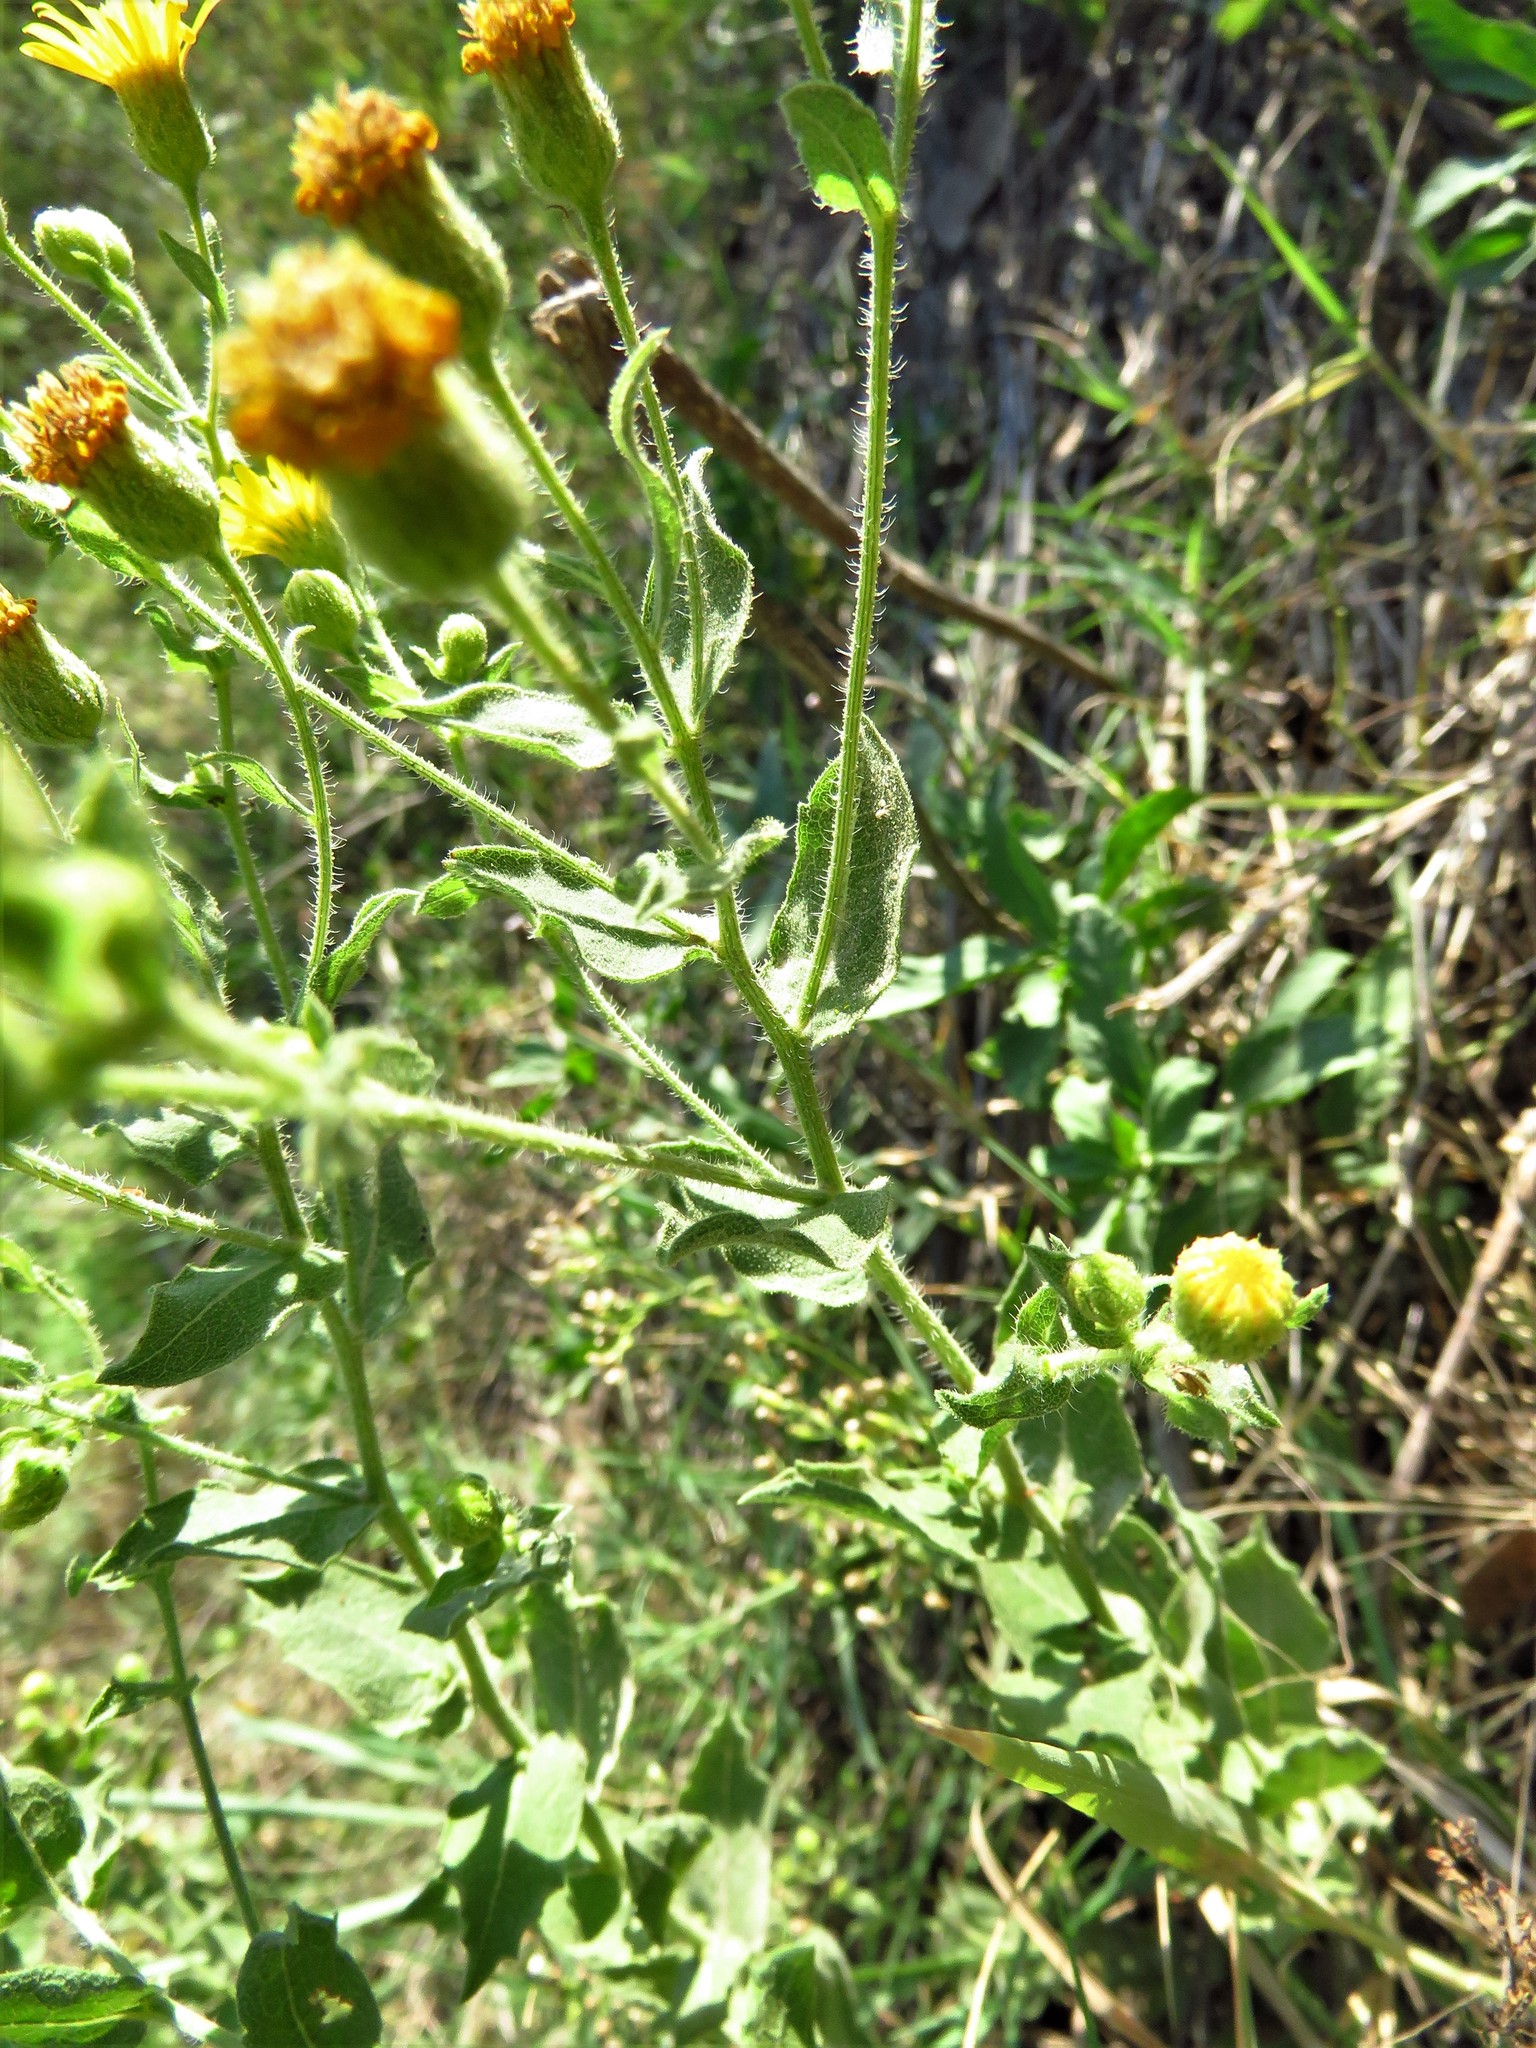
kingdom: Plantae
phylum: Tracheophyta
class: Magnoliopsida
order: Asterales
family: Asteraceae
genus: Heterotheca
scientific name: Heterotheca subaxillaris
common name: Camphorweed
